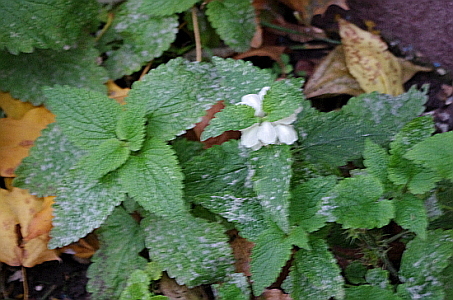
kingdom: Plantae
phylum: Tracheophyta
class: Magnoliopsida
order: Lamiales
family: Lamiaceae
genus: Lamium
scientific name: Lamium album
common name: White dead-nettle
